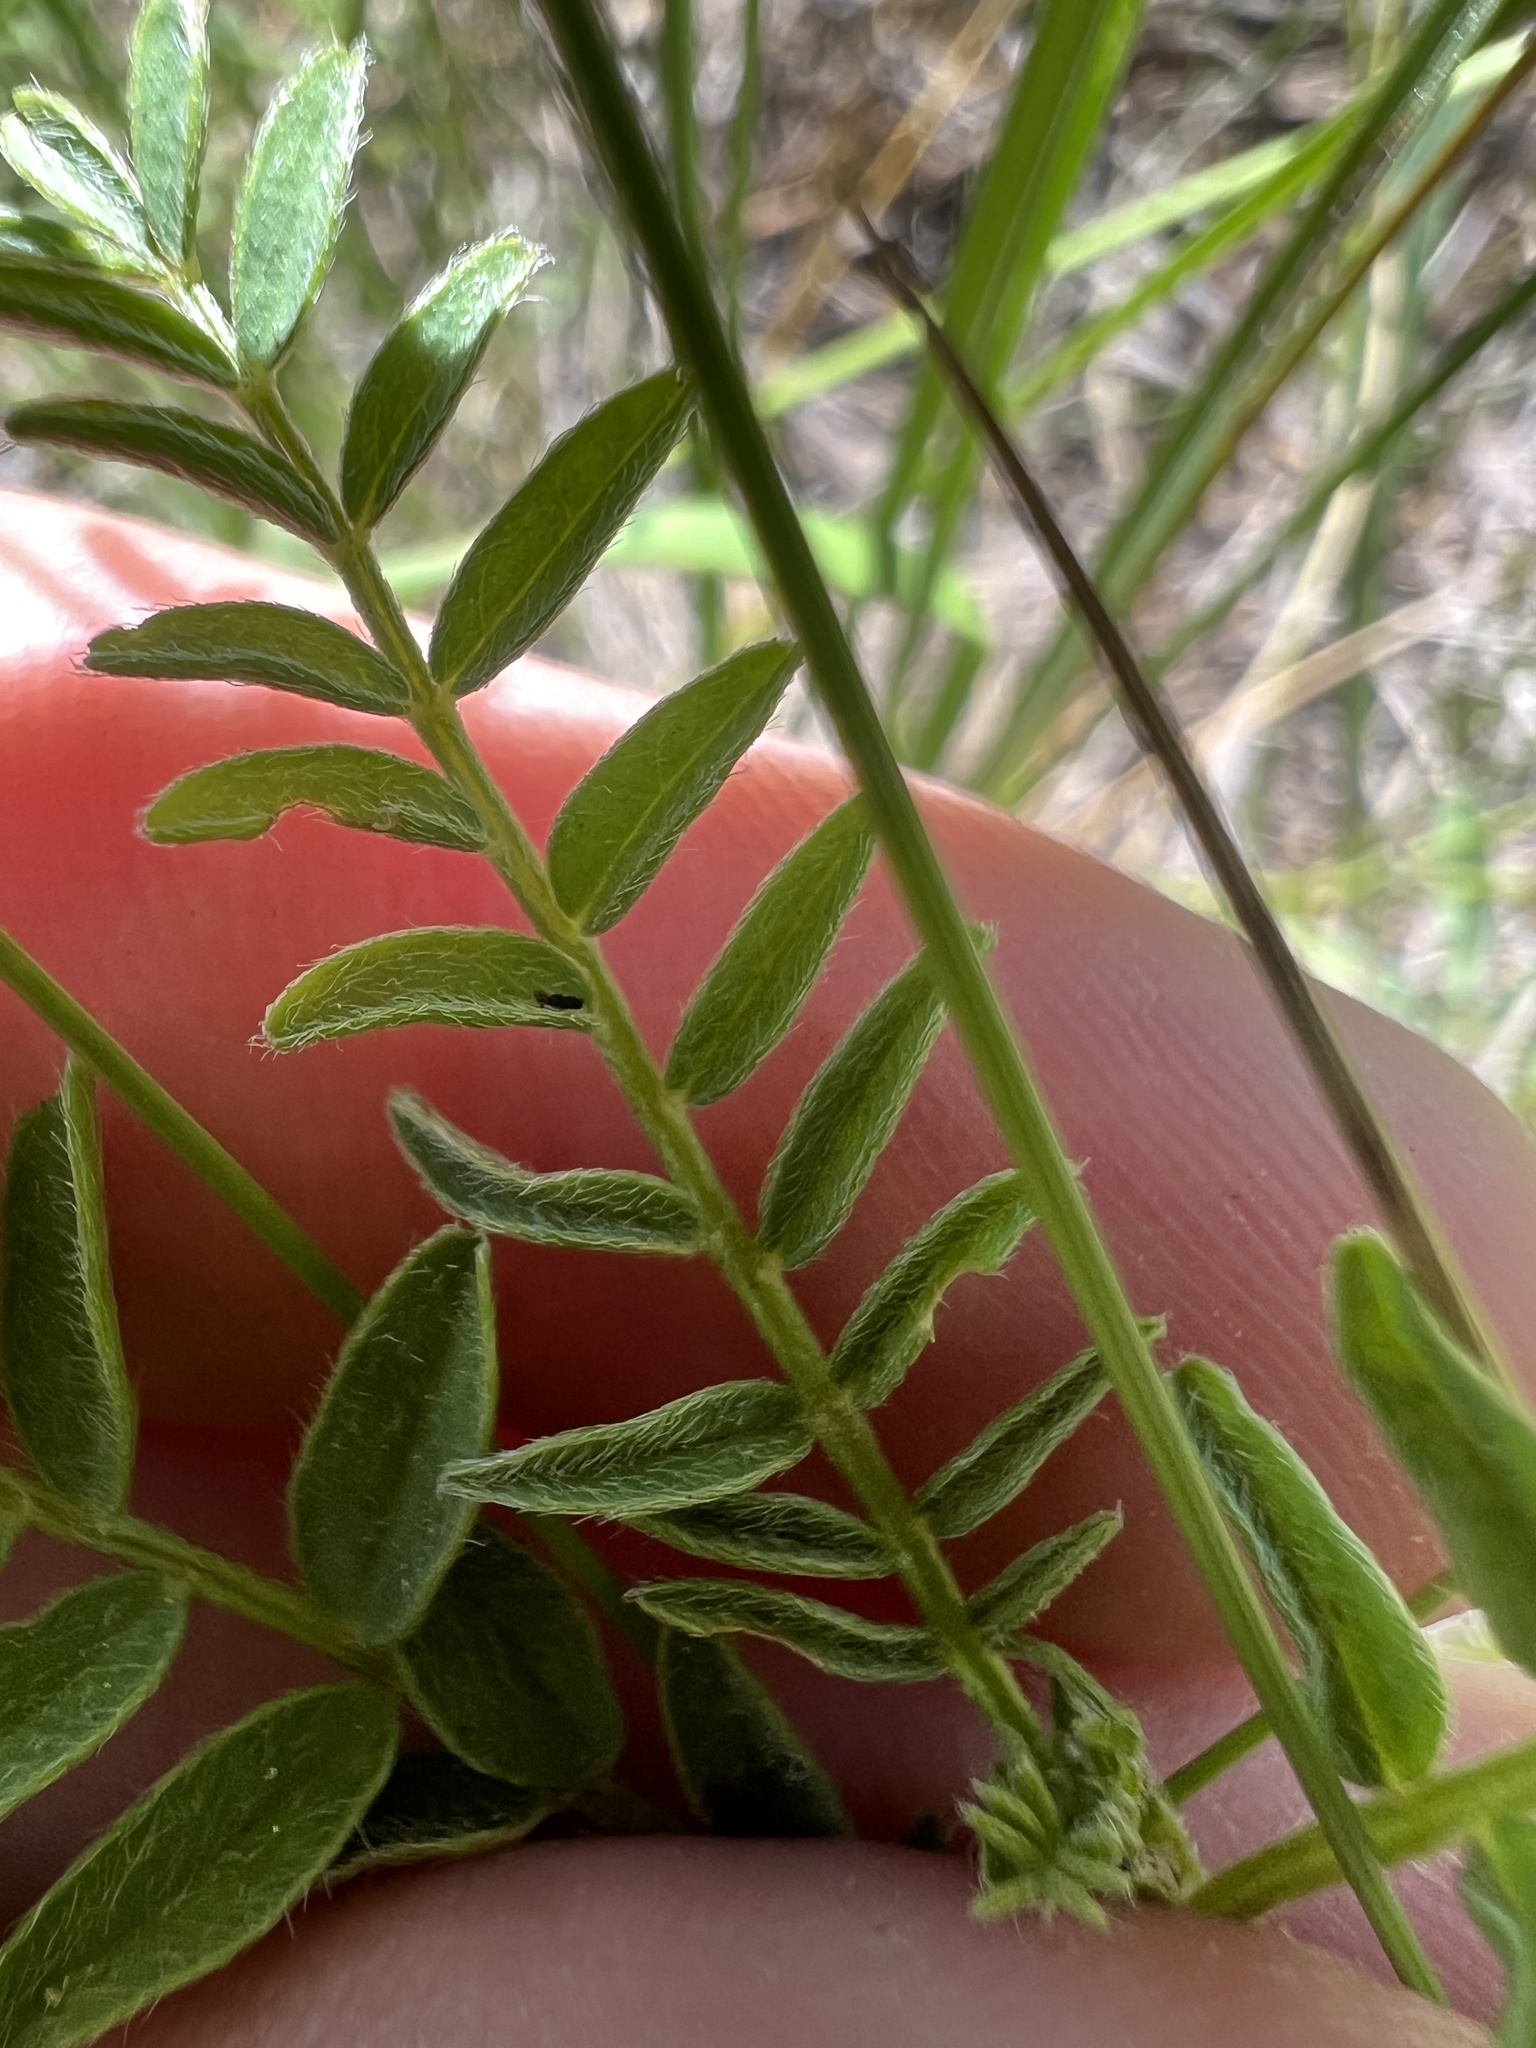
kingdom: Plantae
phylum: Tracheophyta
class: Magnoliopsida
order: Fabales
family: Fabaceae
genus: Astragalus
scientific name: Astragalus agrestis
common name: Field milk-vetch
